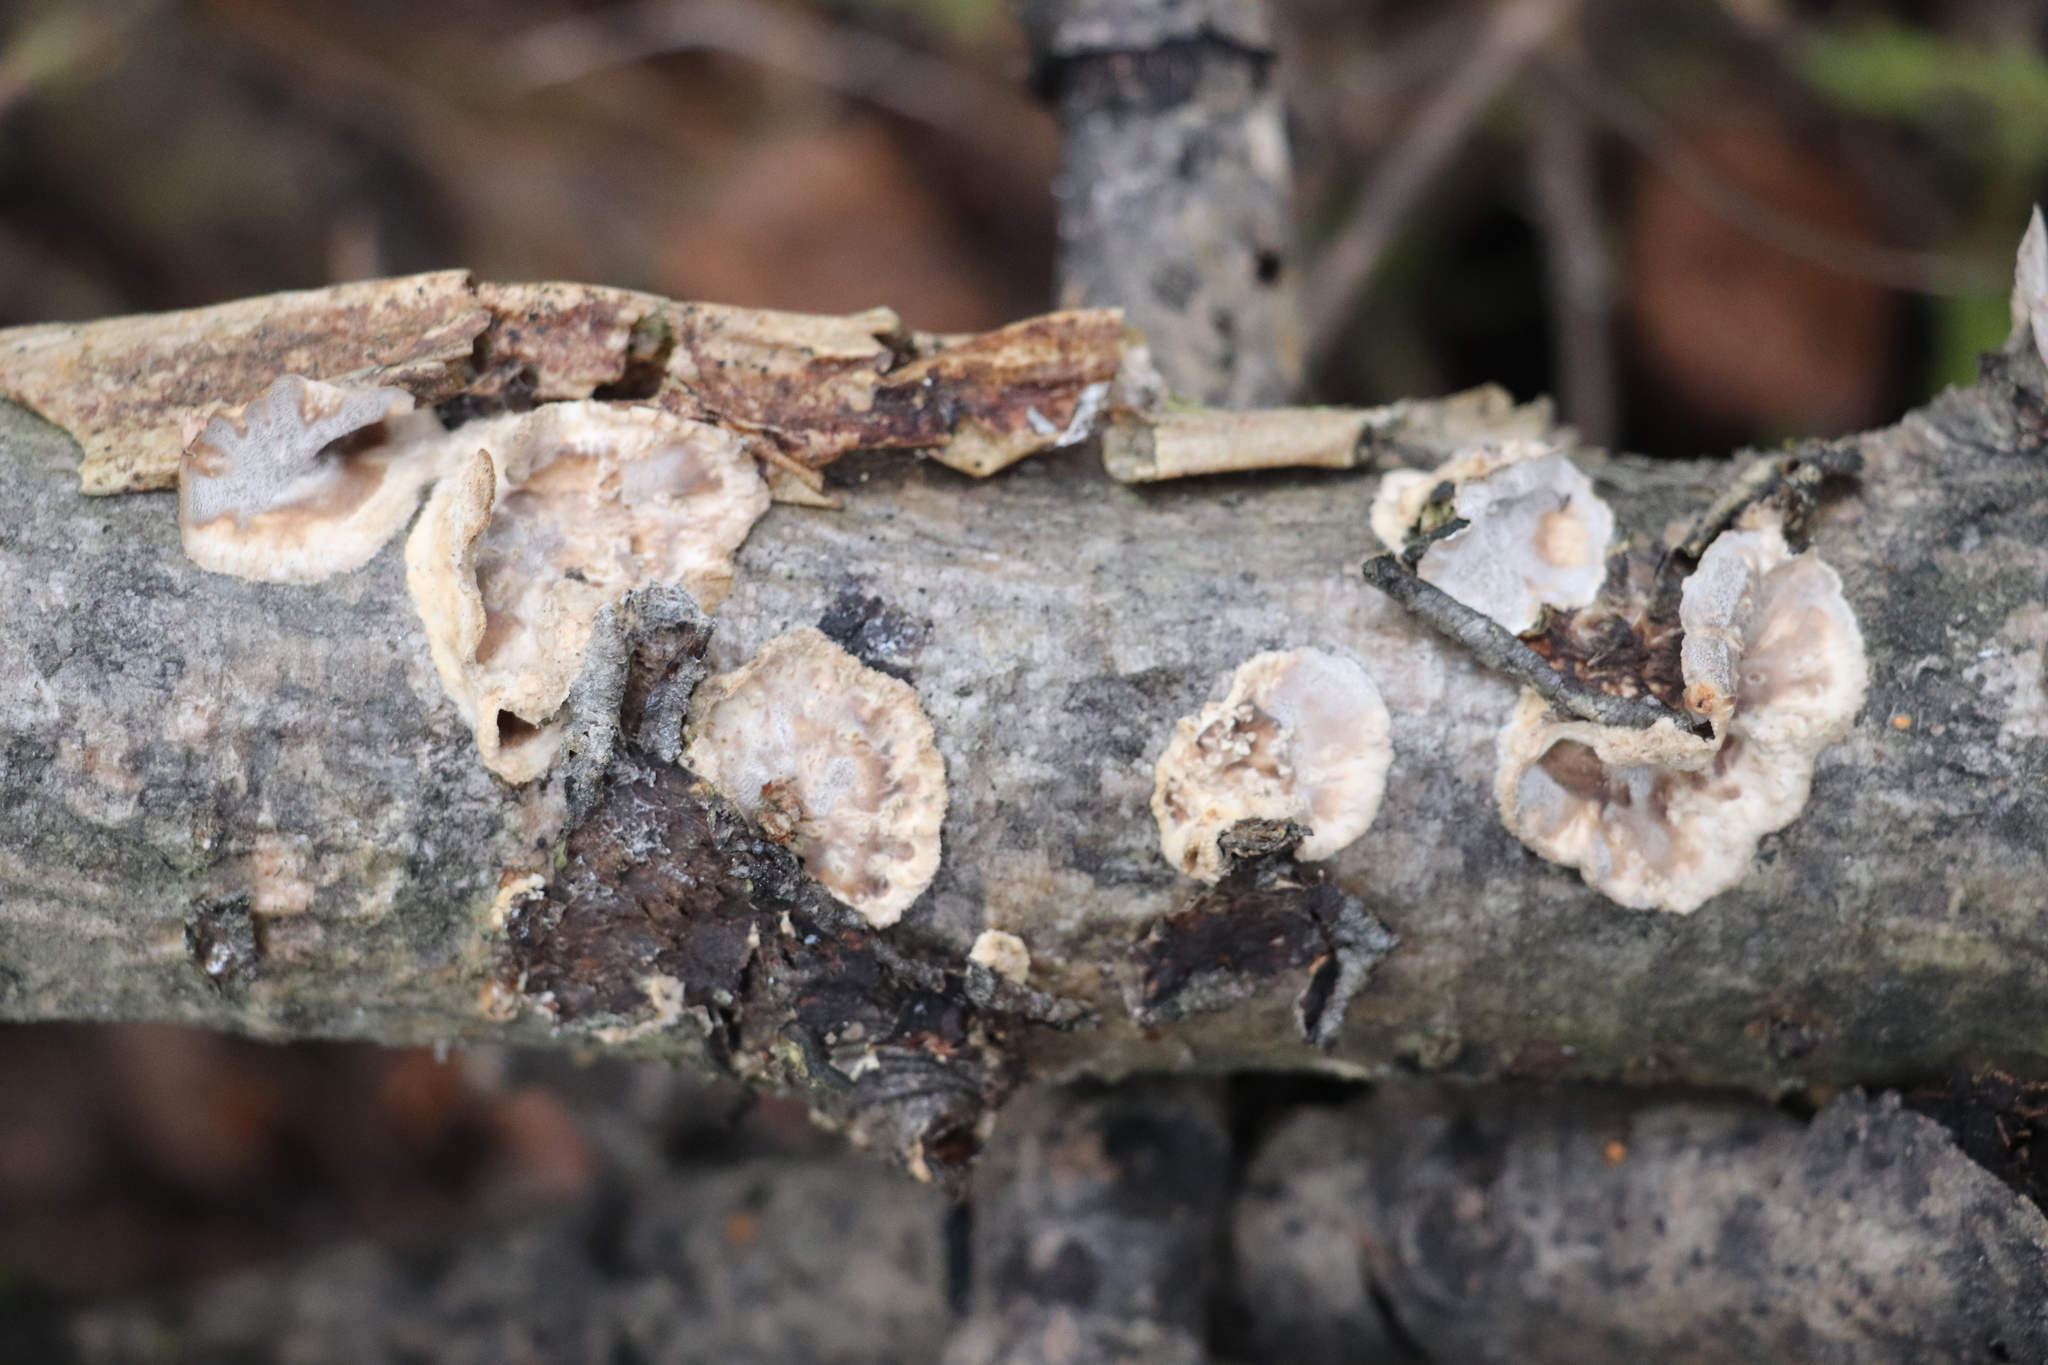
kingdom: Fungi
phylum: Basidiomycota
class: Agaricomycetes
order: Polyporales
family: Phanerochaetaceae
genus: Bjerkandera
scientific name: Bjerkandera adusta
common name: Smoky bracket
